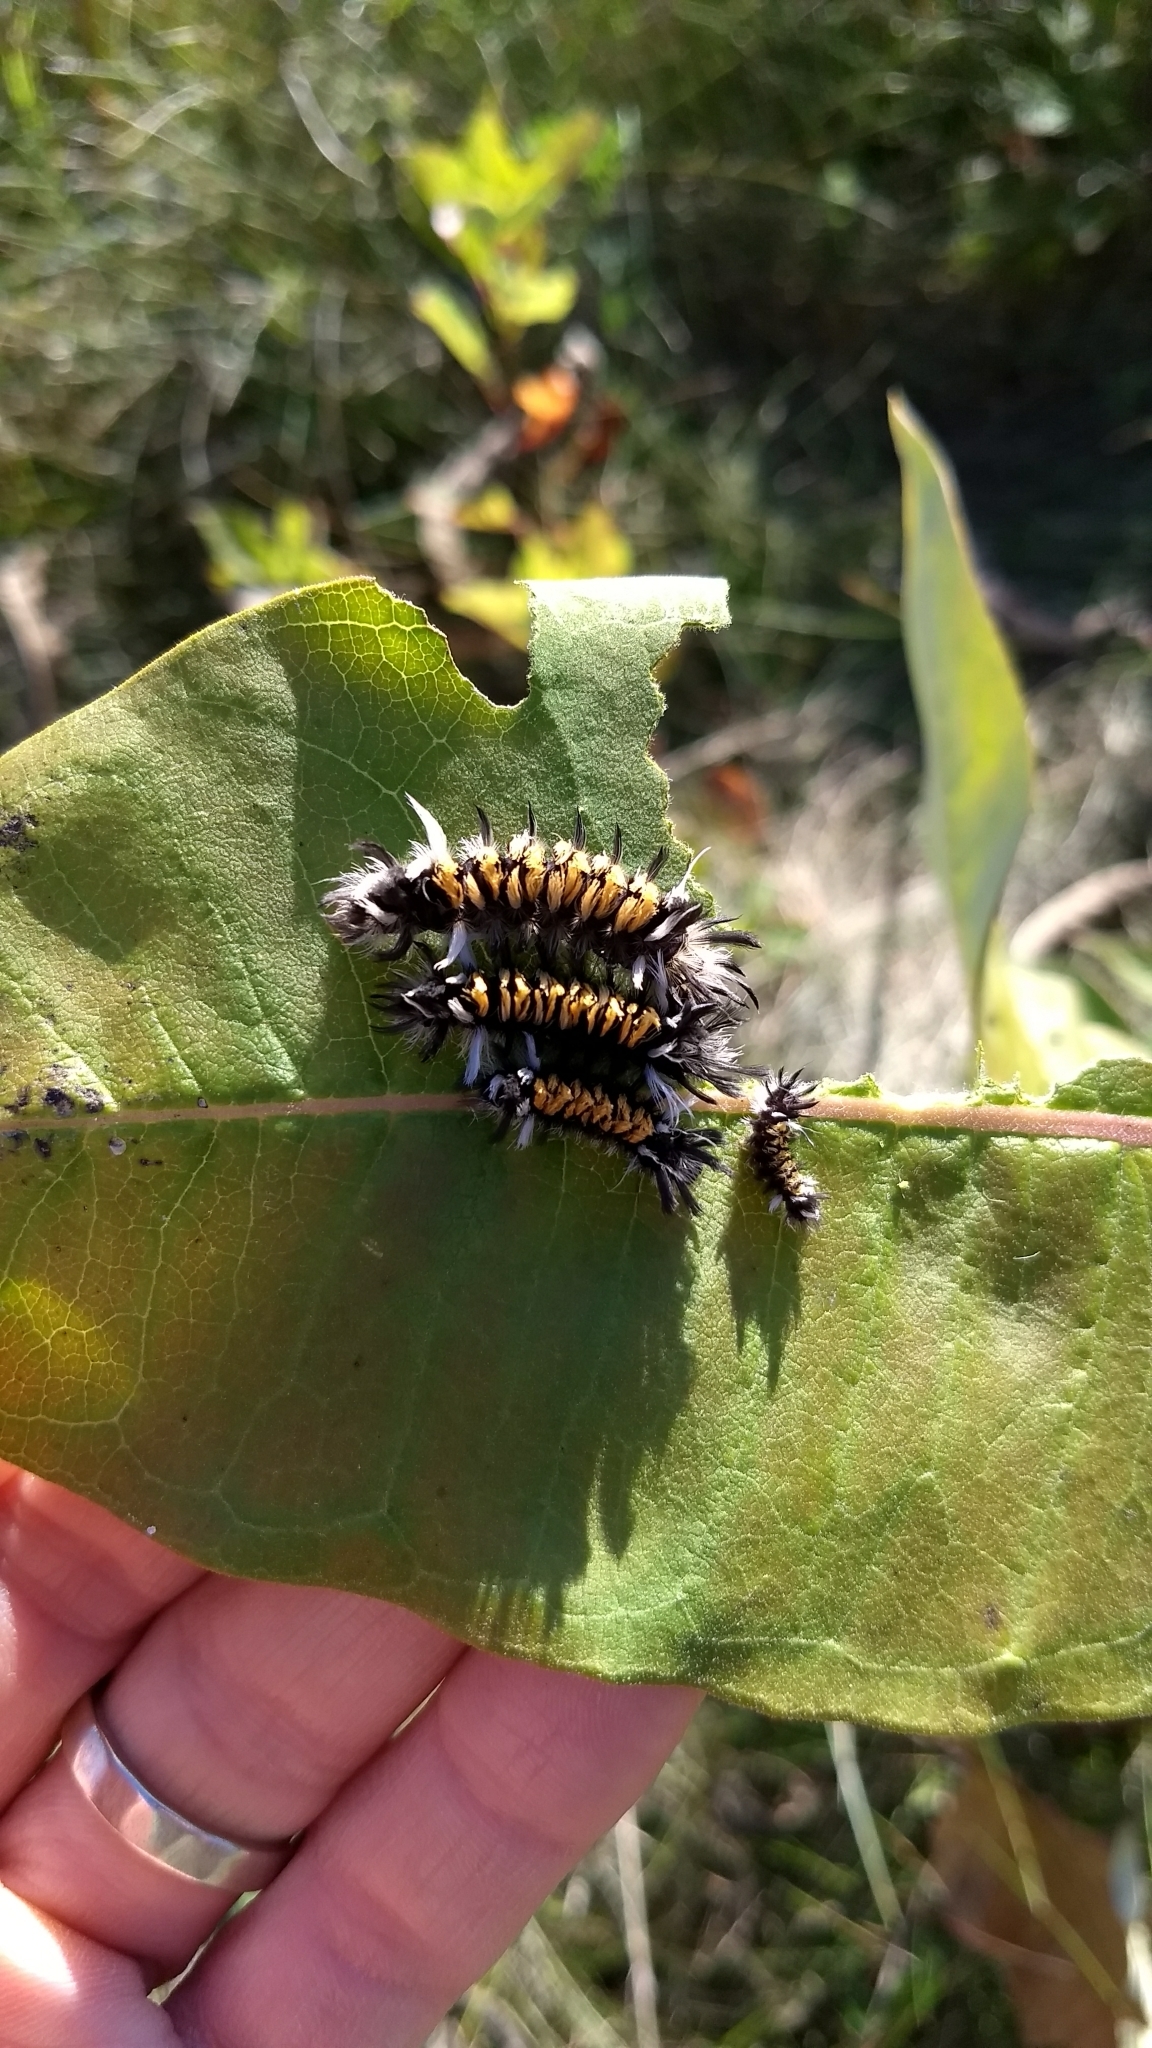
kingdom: Animalia
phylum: Arthropoda
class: Insecta
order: Lepidoptera
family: Erebidae
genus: Euchaetes
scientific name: Euchaetes egle
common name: Milkweed tussock moth
